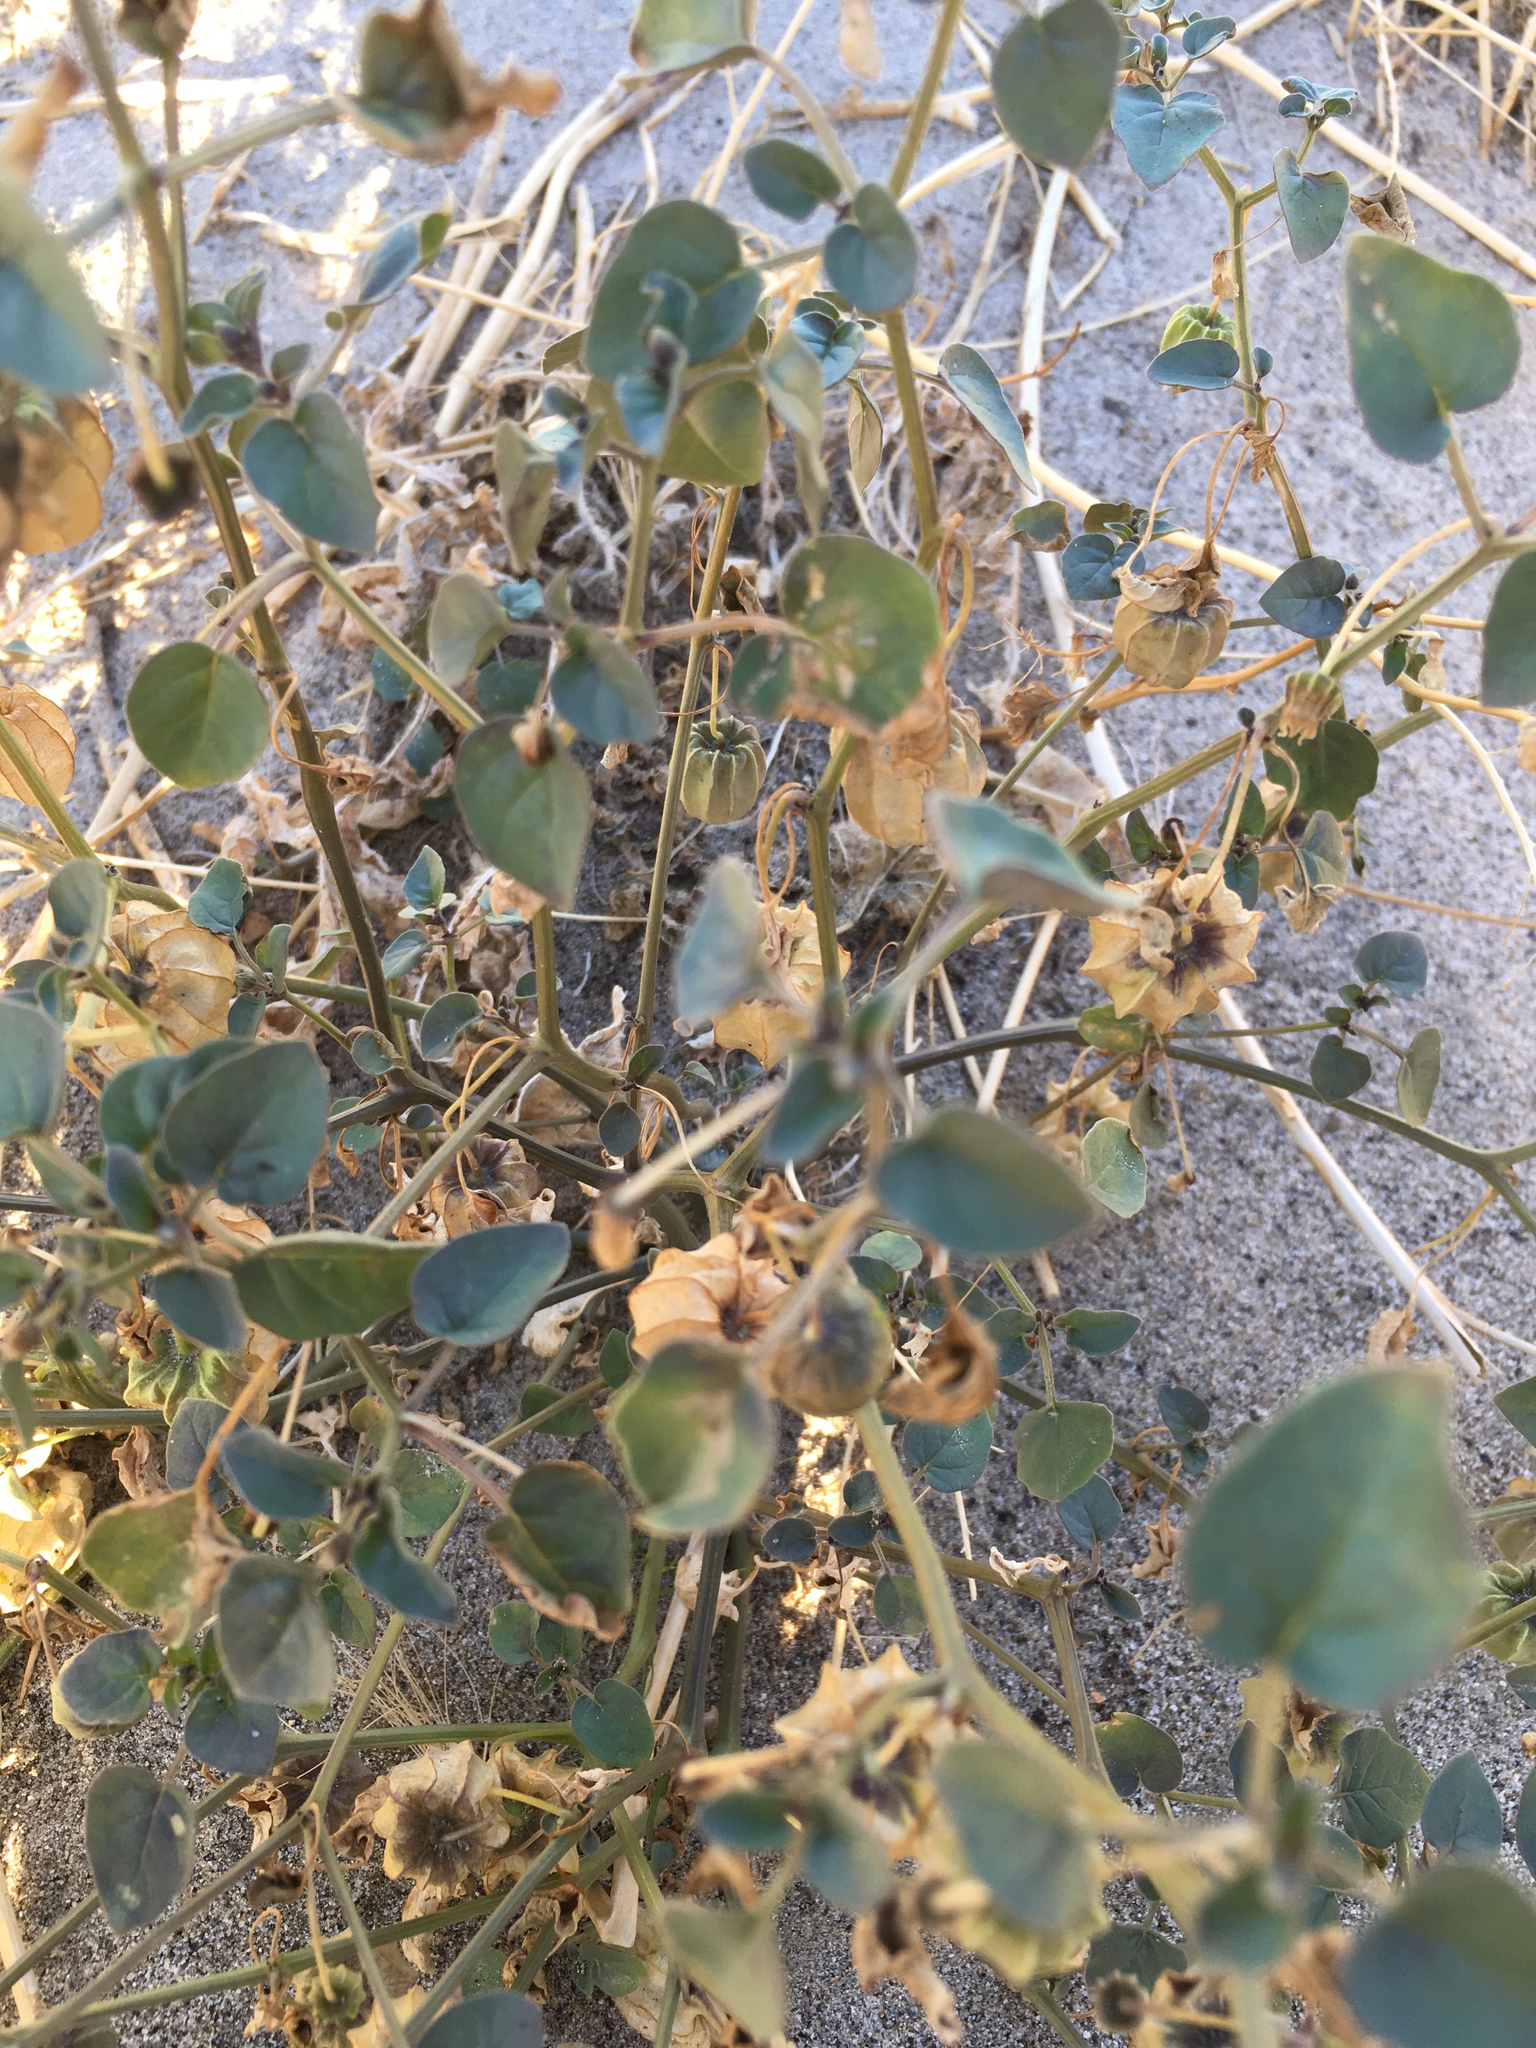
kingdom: Plantae
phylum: Tracheophyta
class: Magnoliopsida
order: Solanales
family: Solanaceae
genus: Physalis
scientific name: Physalis crassifolia
